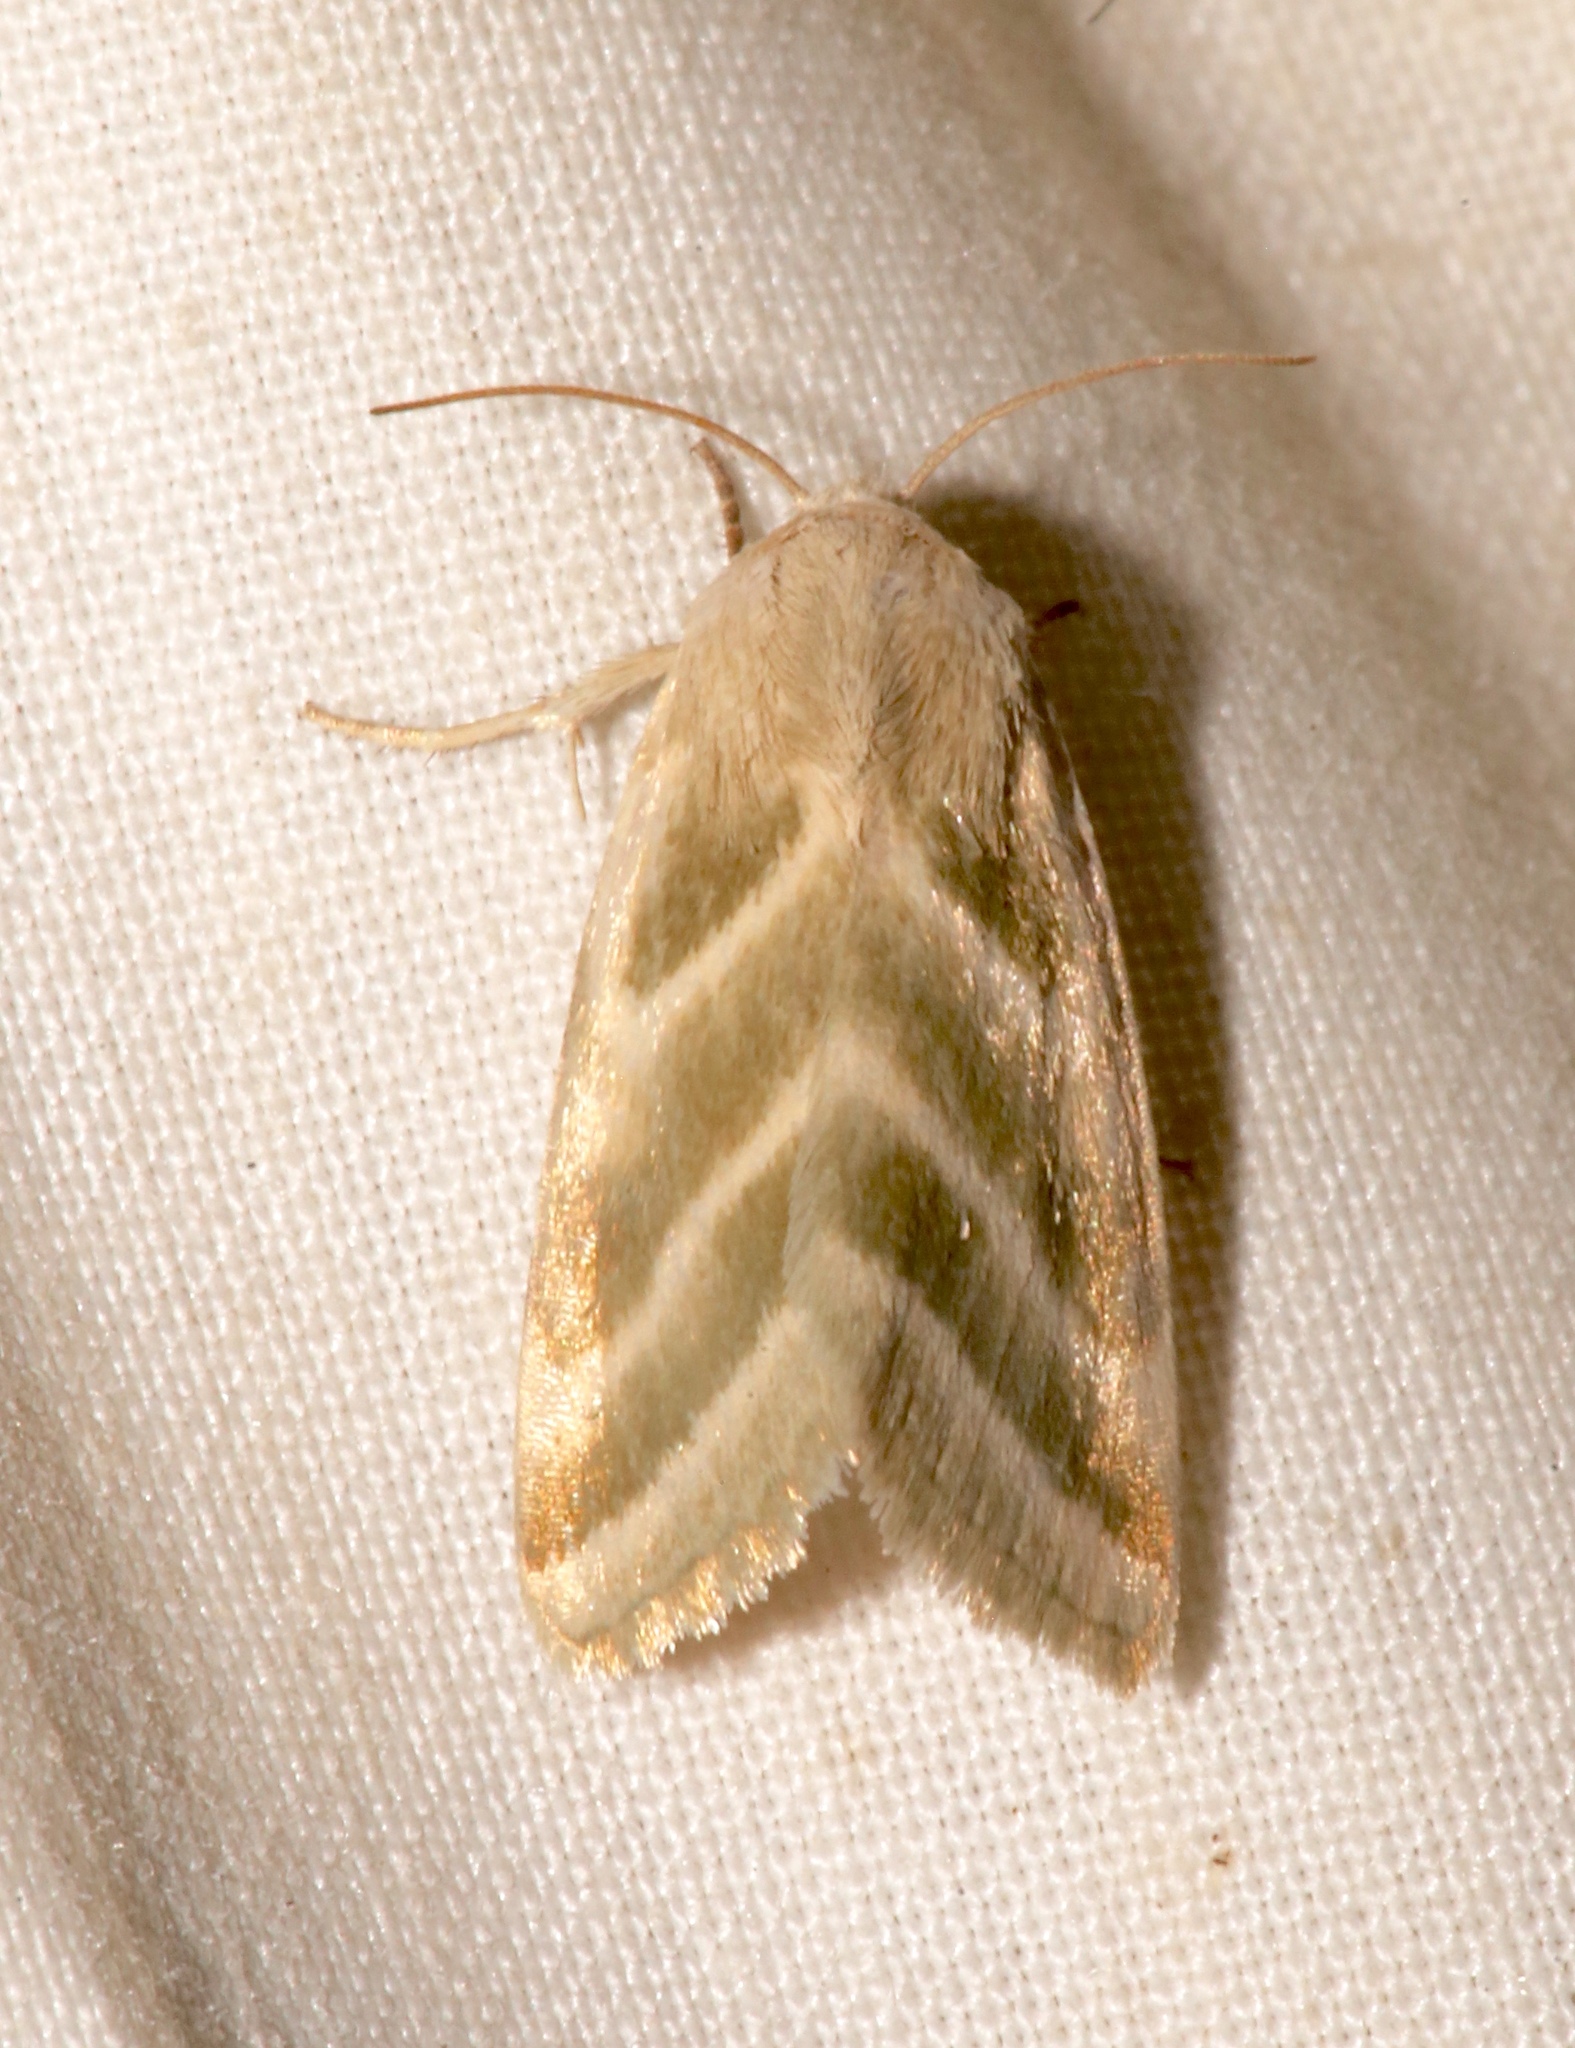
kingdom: Animalia
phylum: Arthropoda
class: Insecta
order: Lepidoptera
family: Noctuidae
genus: Schinia
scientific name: Schinia trifascia
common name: Three-lined flower moth
